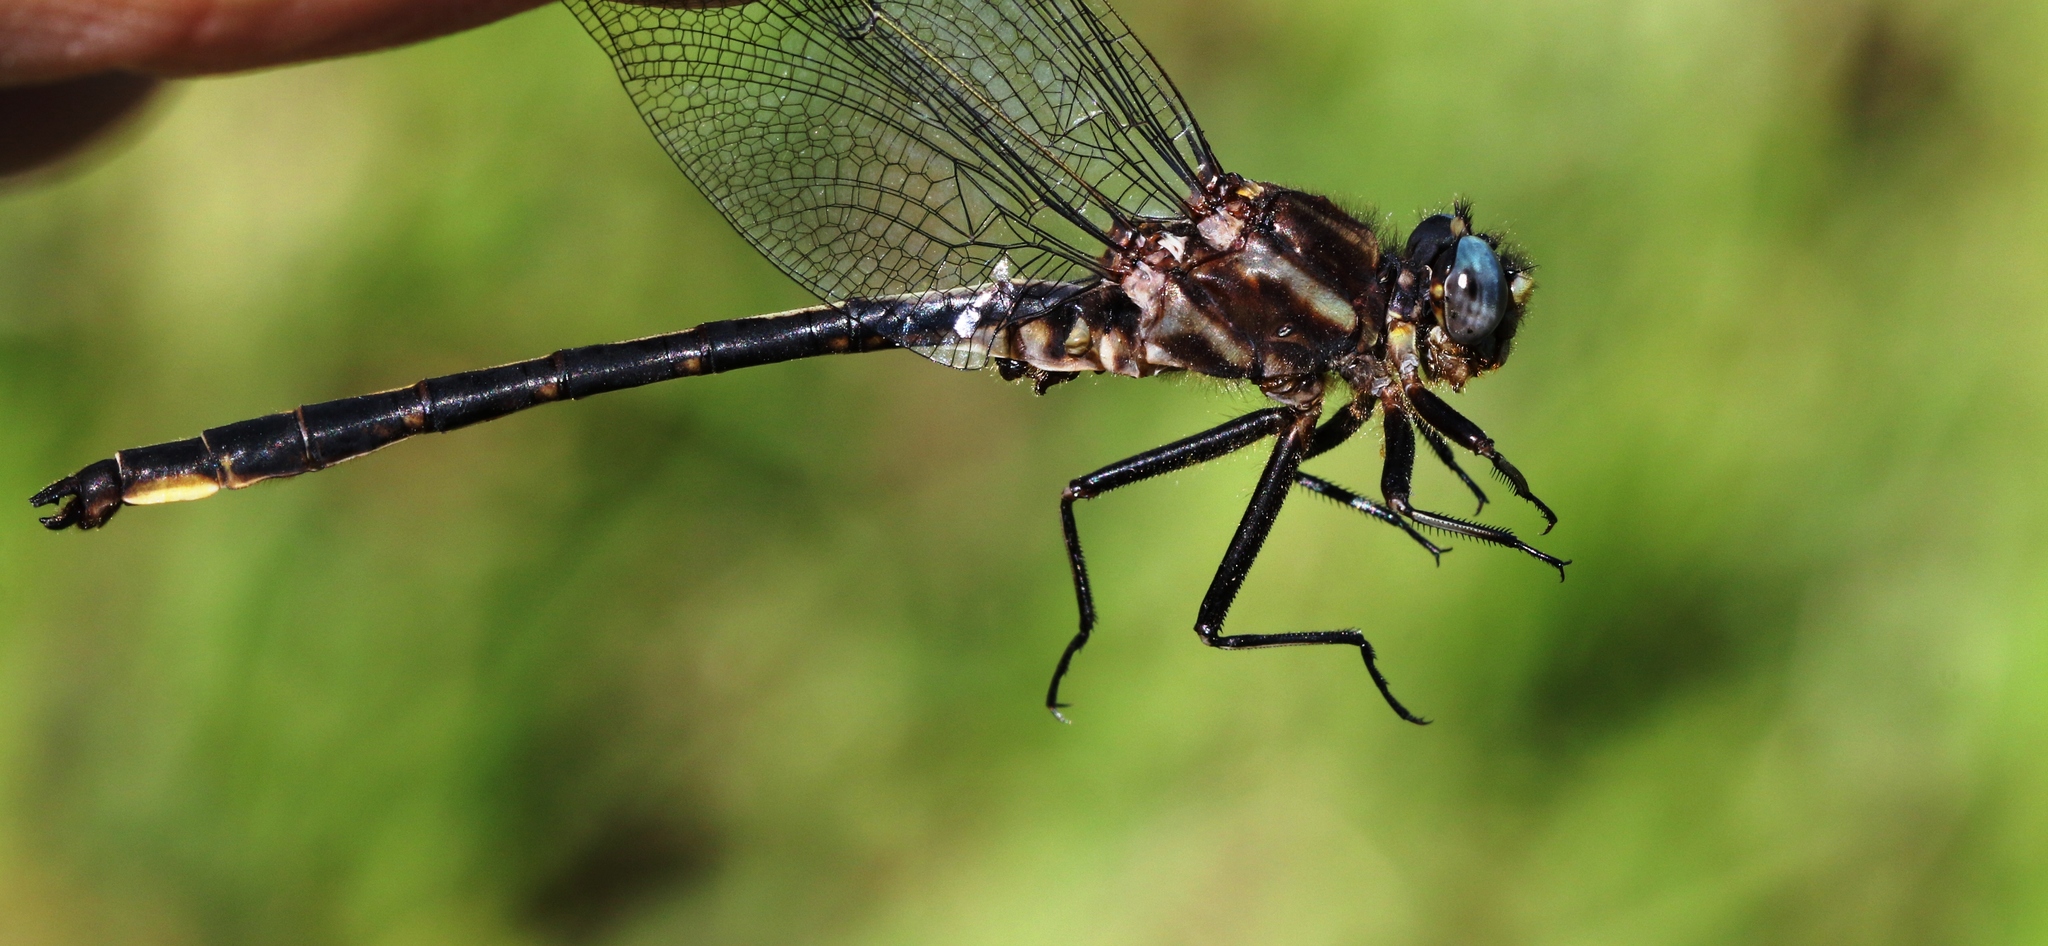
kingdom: Animalia
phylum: Arthropoda
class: Insecta
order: Odonata
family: Gomphidae
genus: Phanogomphus
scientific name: Phanogomphus spicatus
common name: Dusky clubtail
